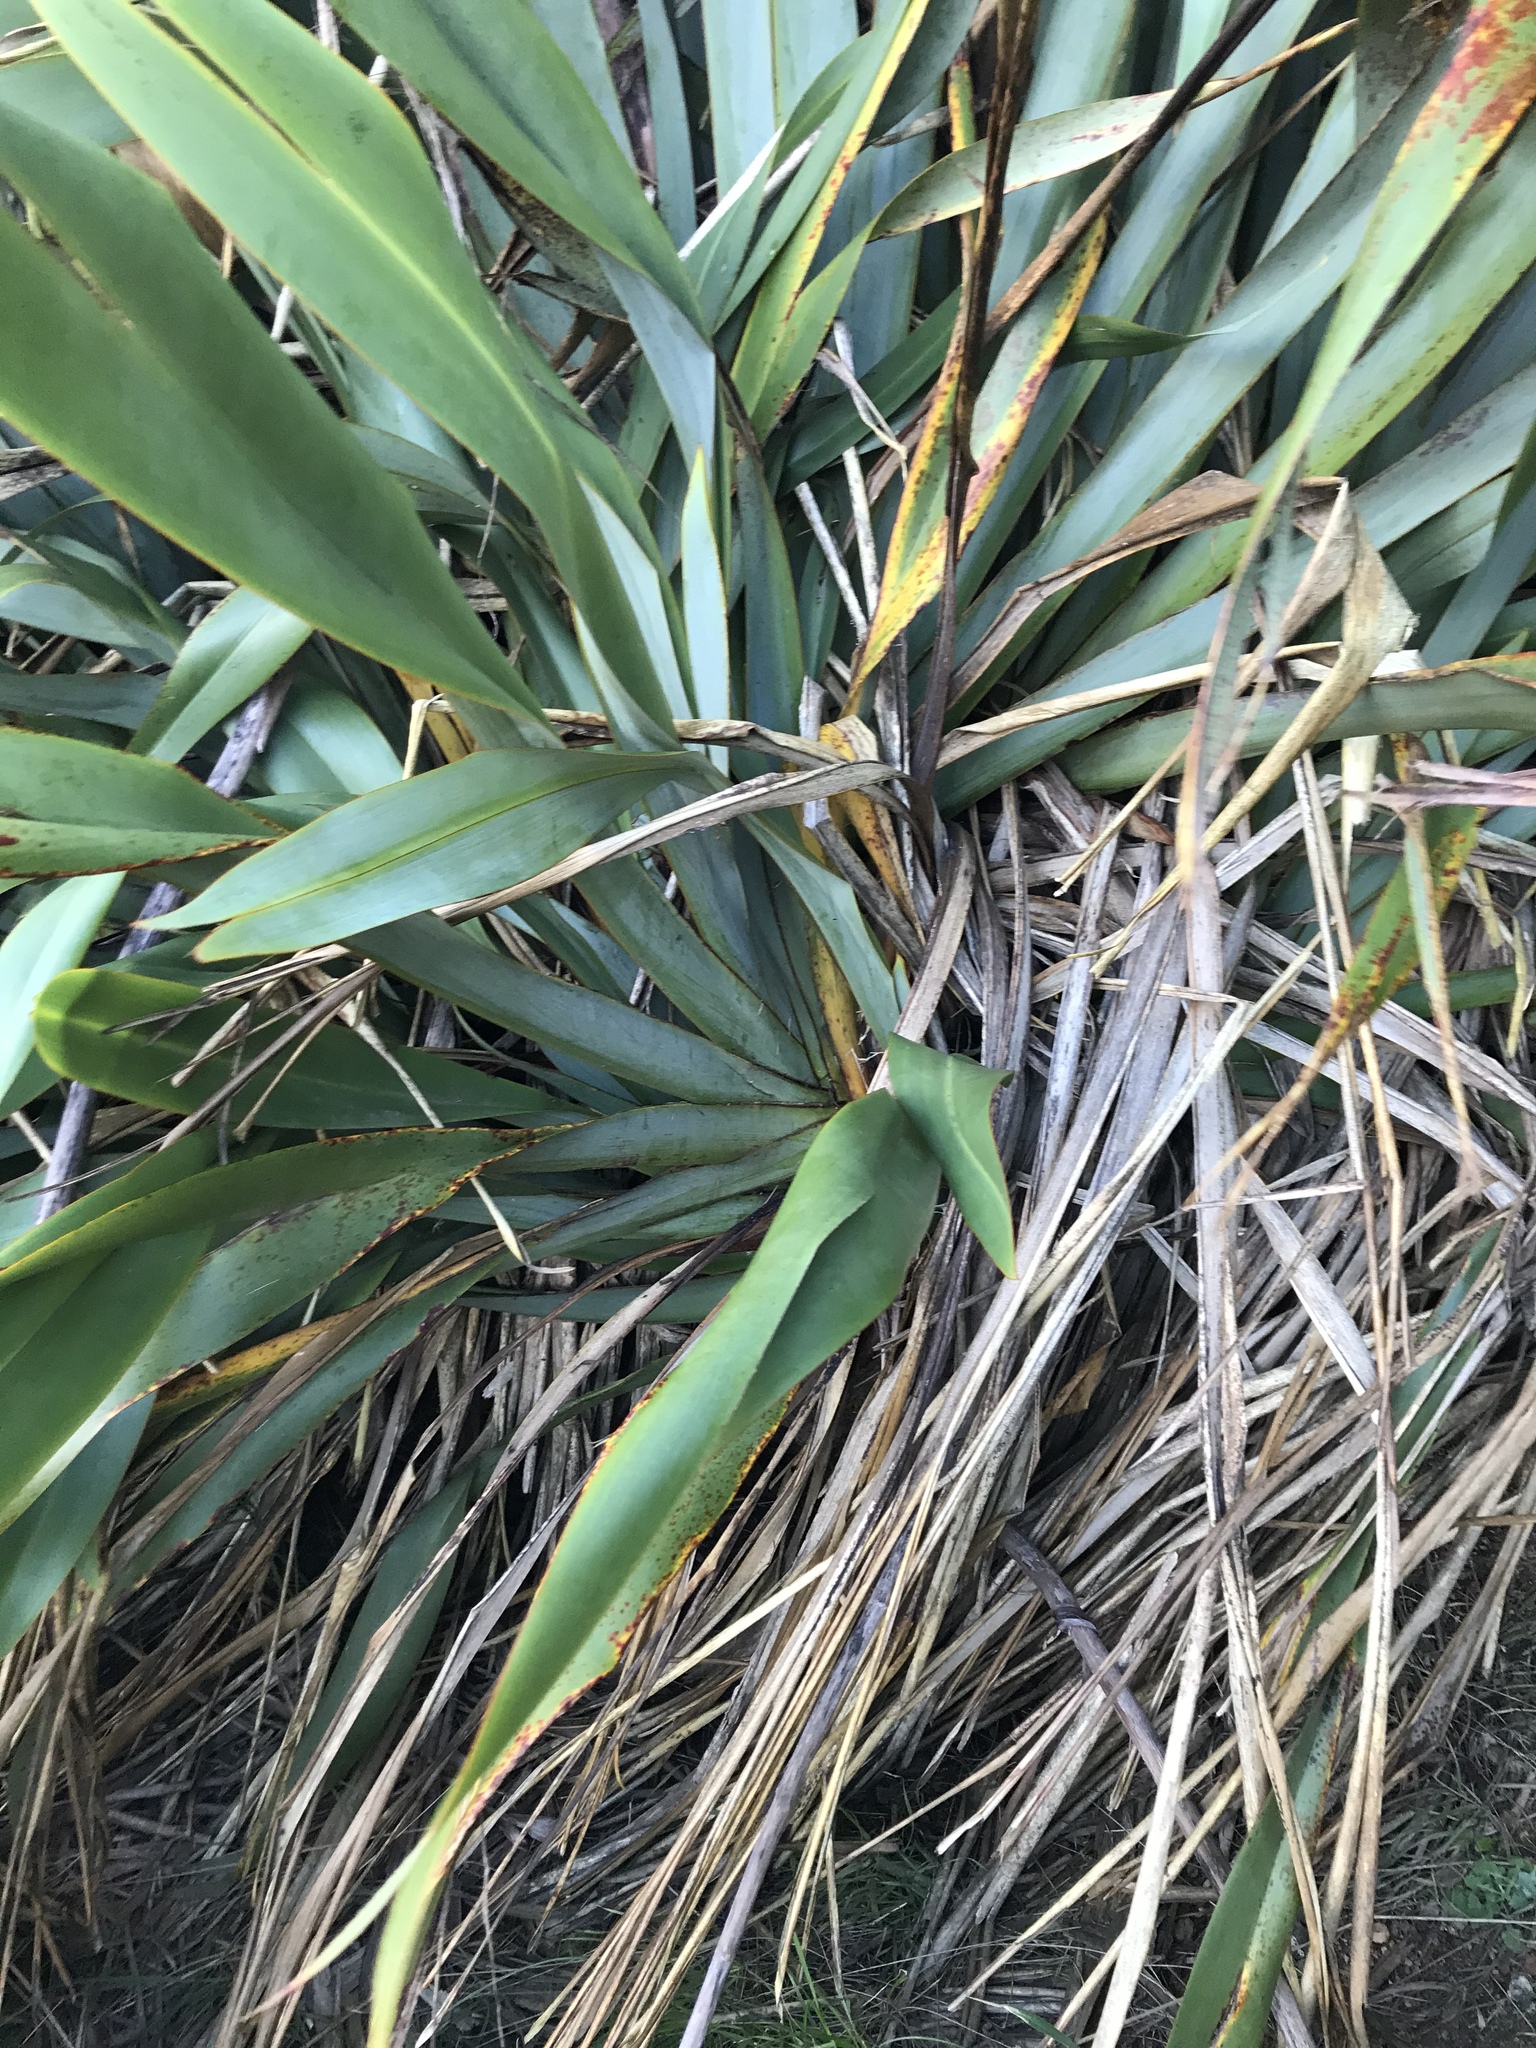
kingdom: Plantae
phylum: Tracheophyta
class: Liliopsida
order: Asparagales
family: Asphodelaceae
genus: Phormium
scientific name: Phormium tenax
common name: New zealand flax
